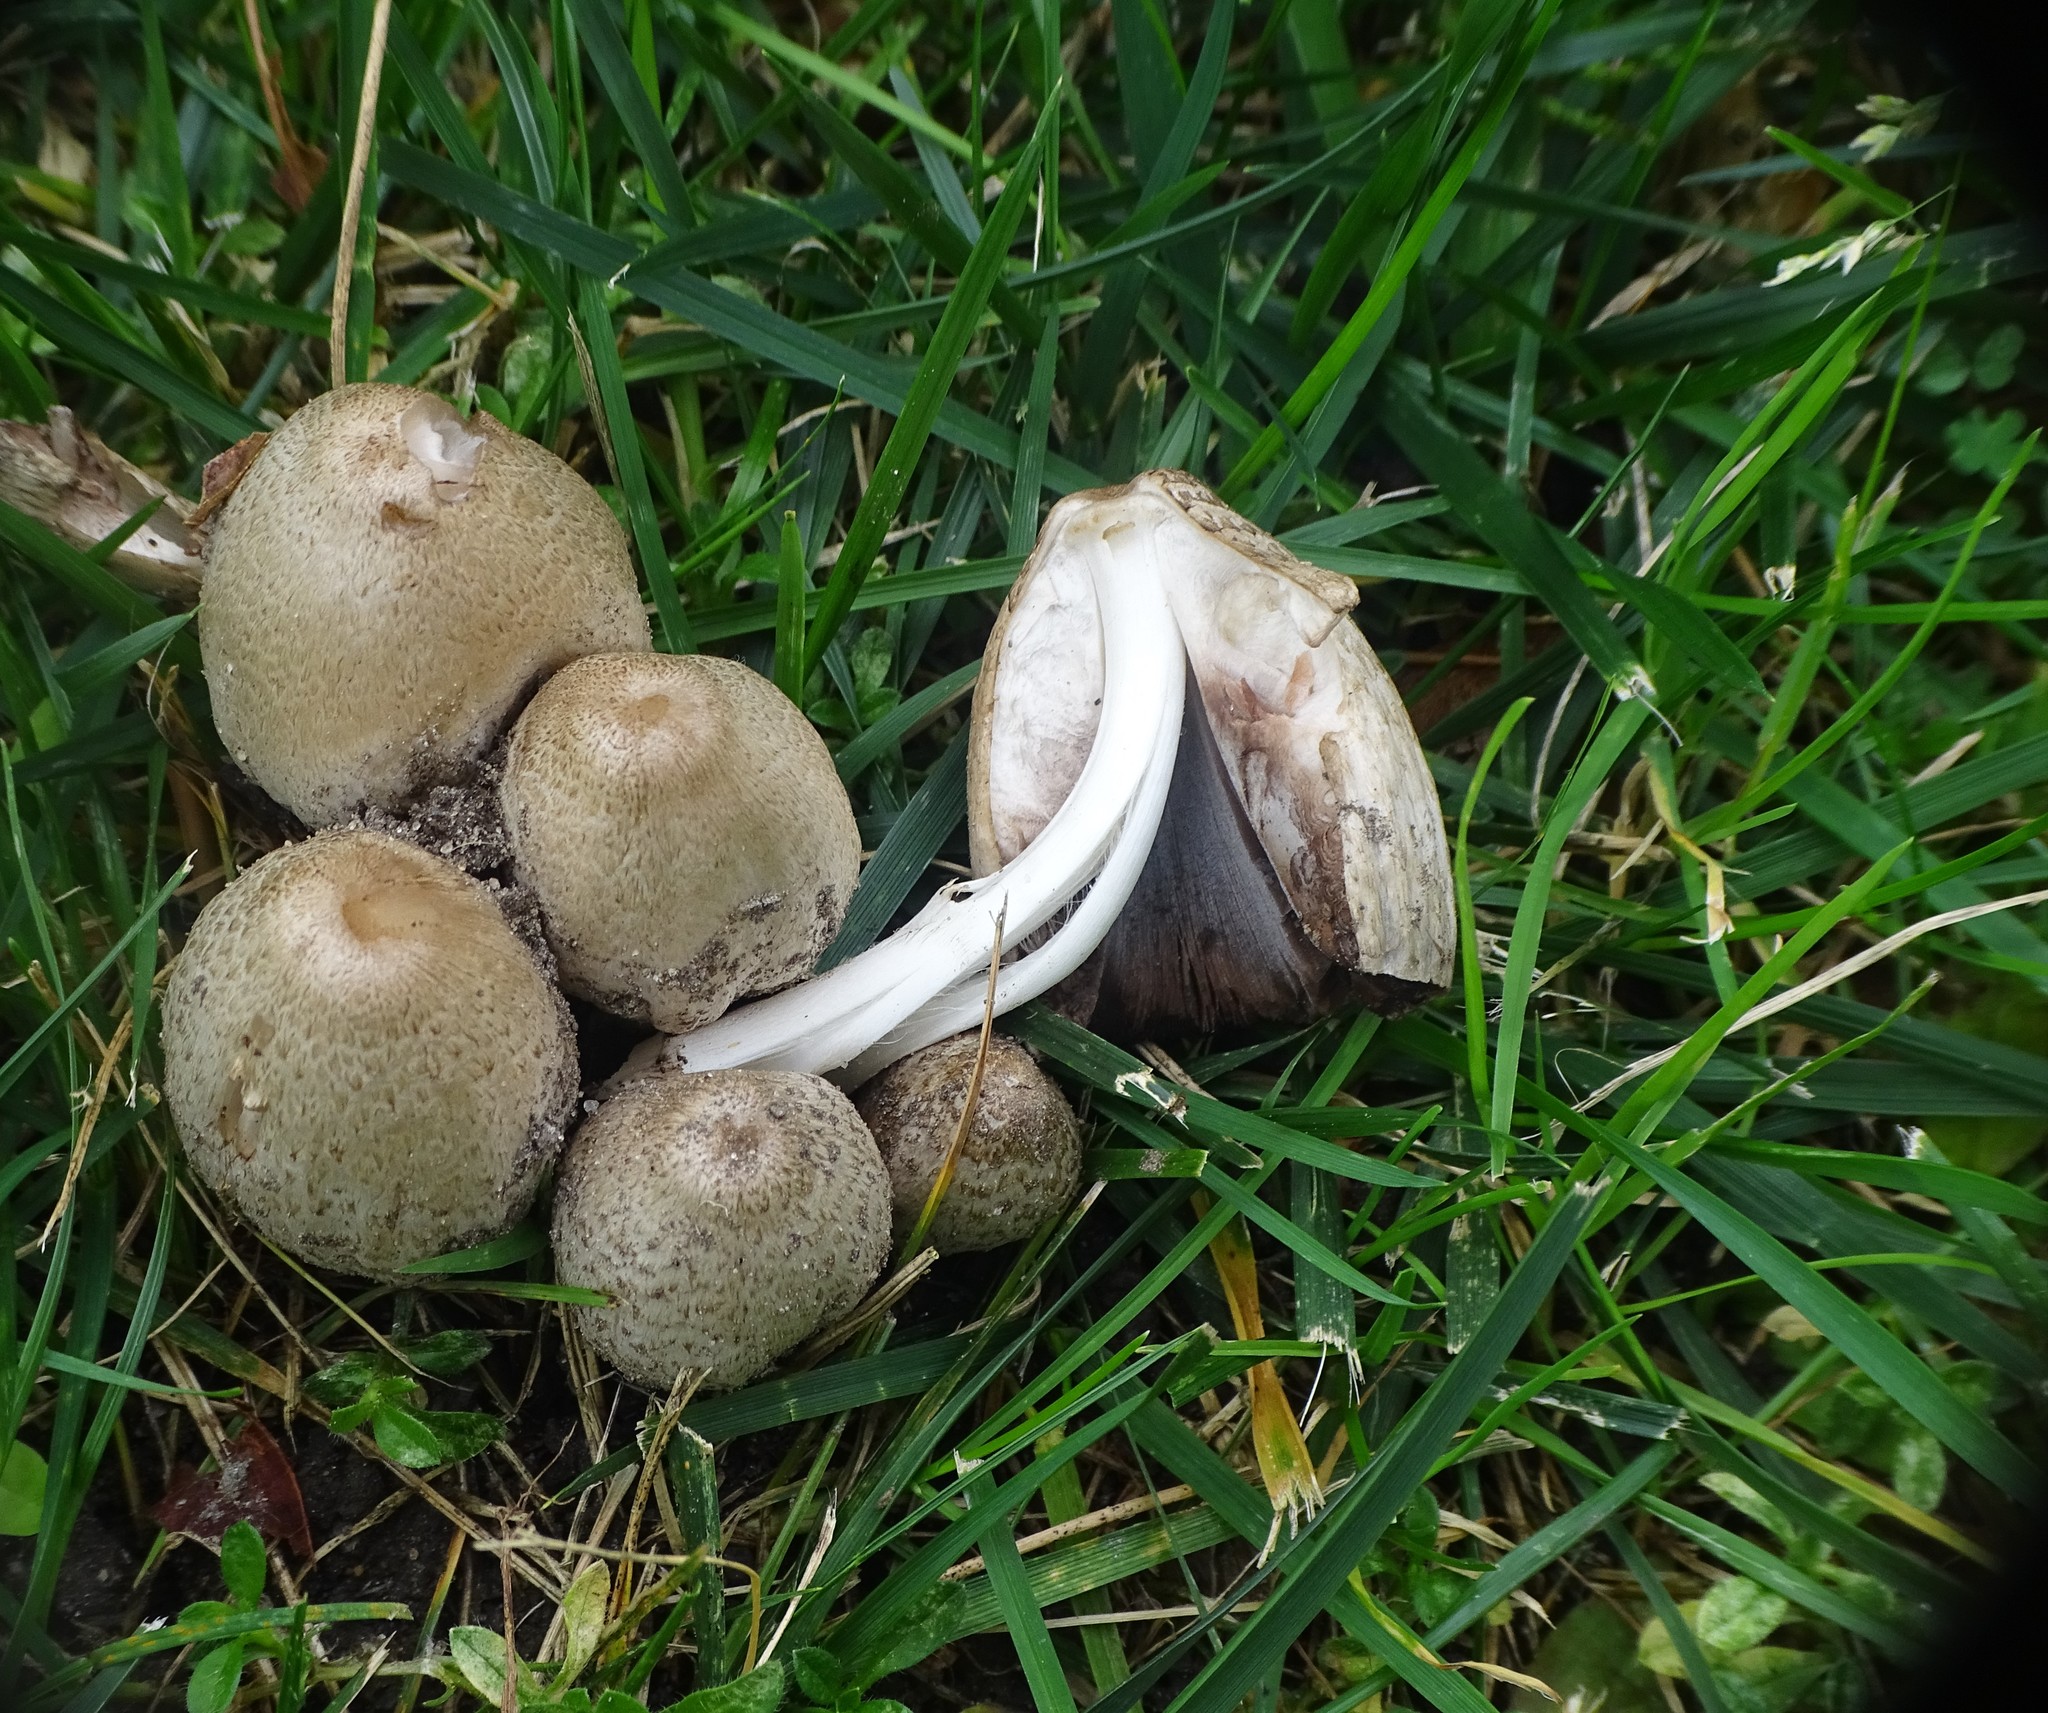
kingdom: Fungi
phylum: Basidiomycota
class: Agaricomycetes
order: Agaricales
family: Psathyrellaceae
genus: Coprinopsis
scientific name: Coprinopsis atramentaria
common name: Common ink-cap
